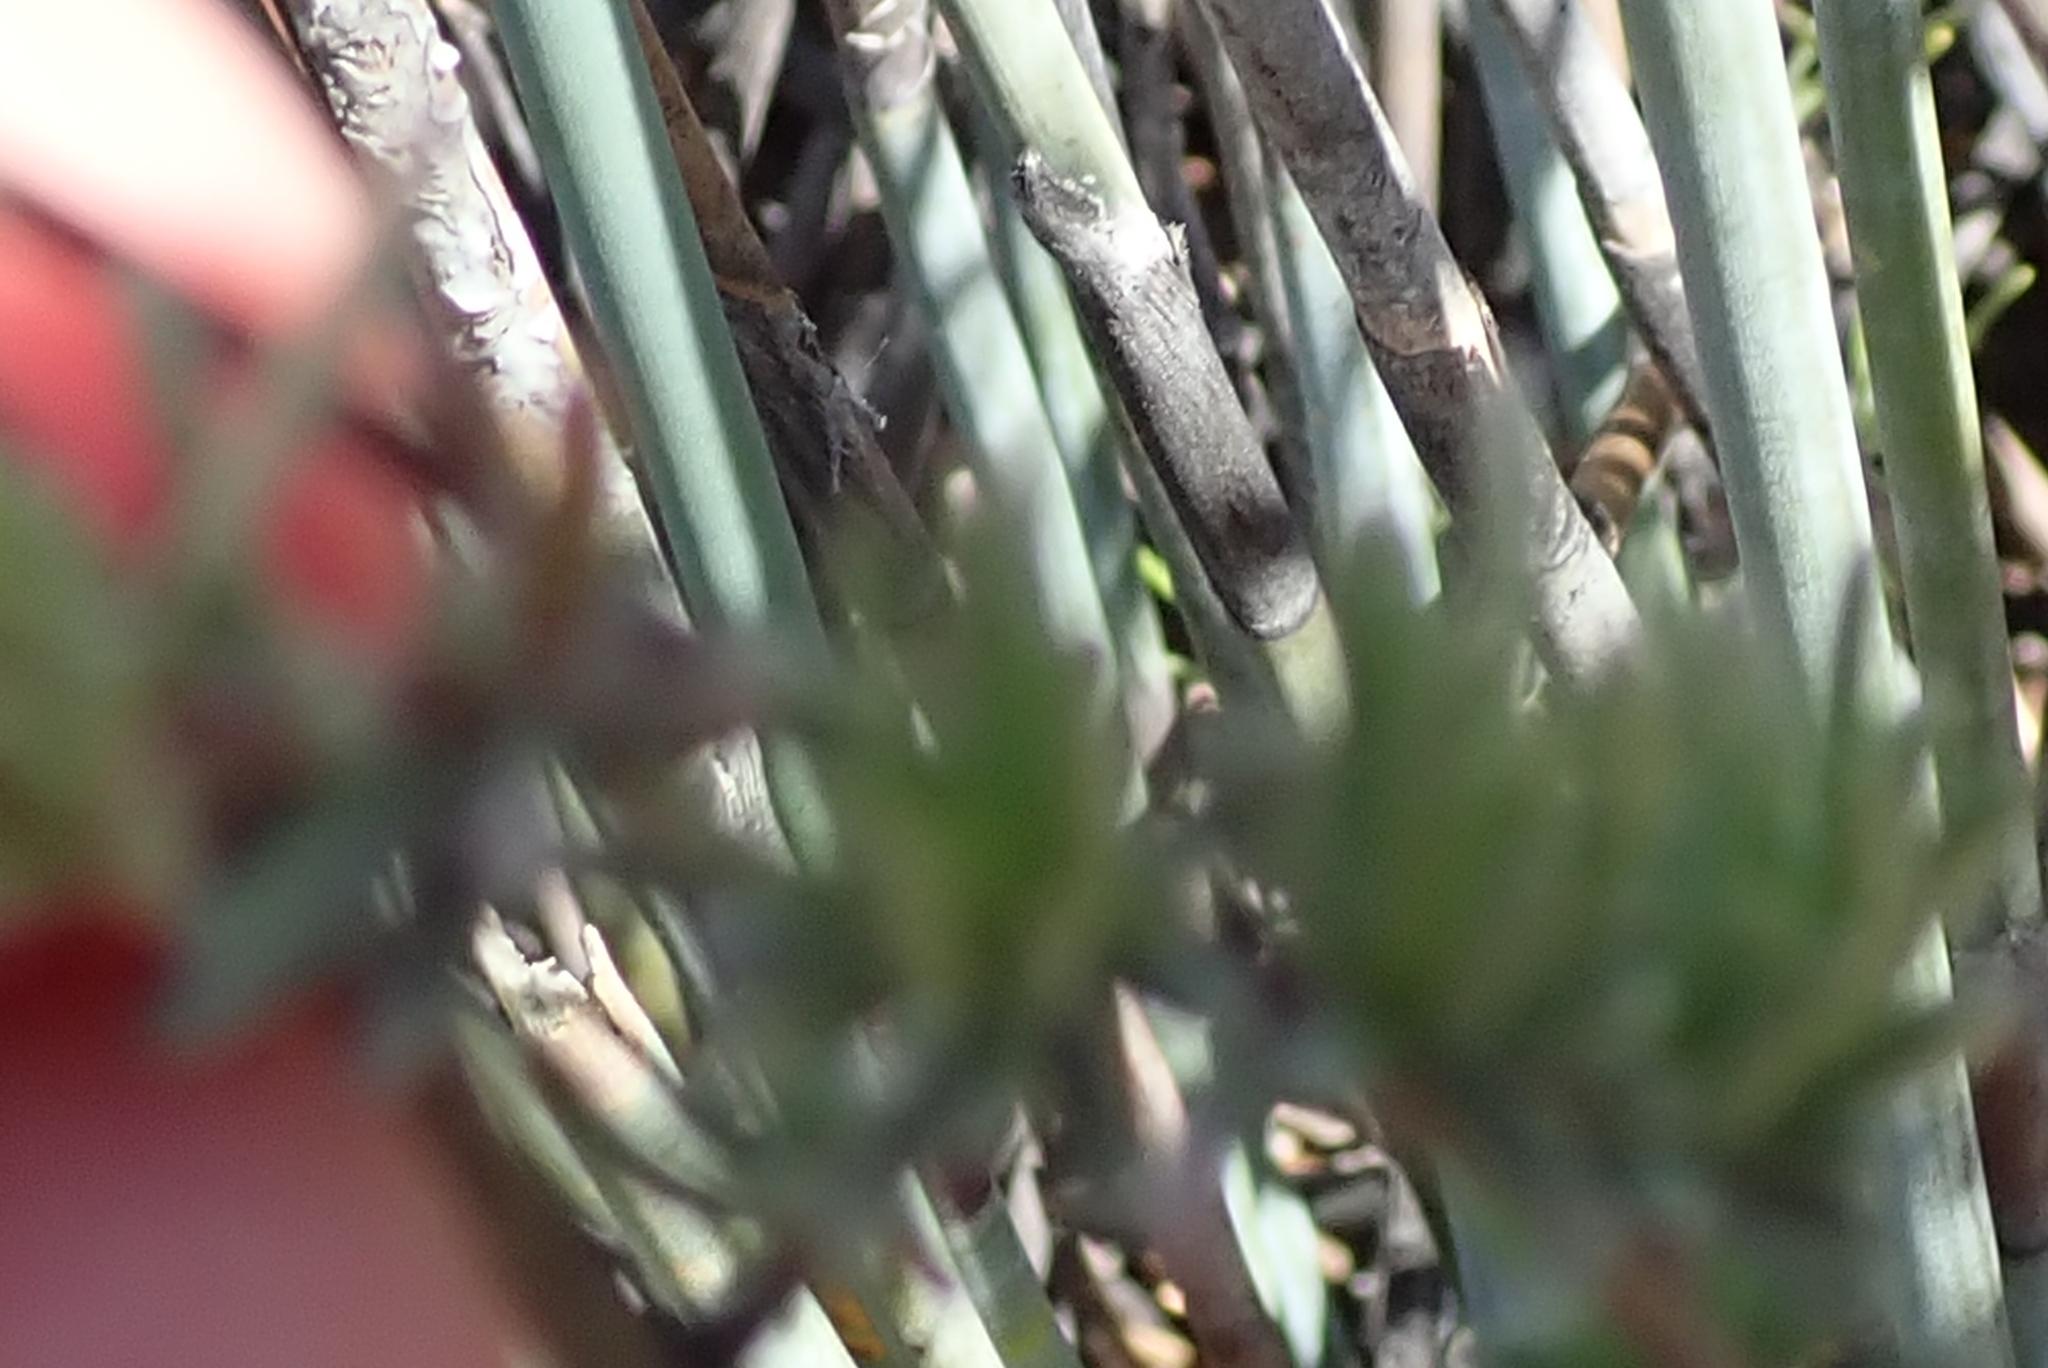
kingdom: Plantae
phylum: Tracheophyta
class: Magnoliopsida
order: Asterales
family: Asteraceae
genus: Eriocephalus
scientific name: Eriocephalus africanus
